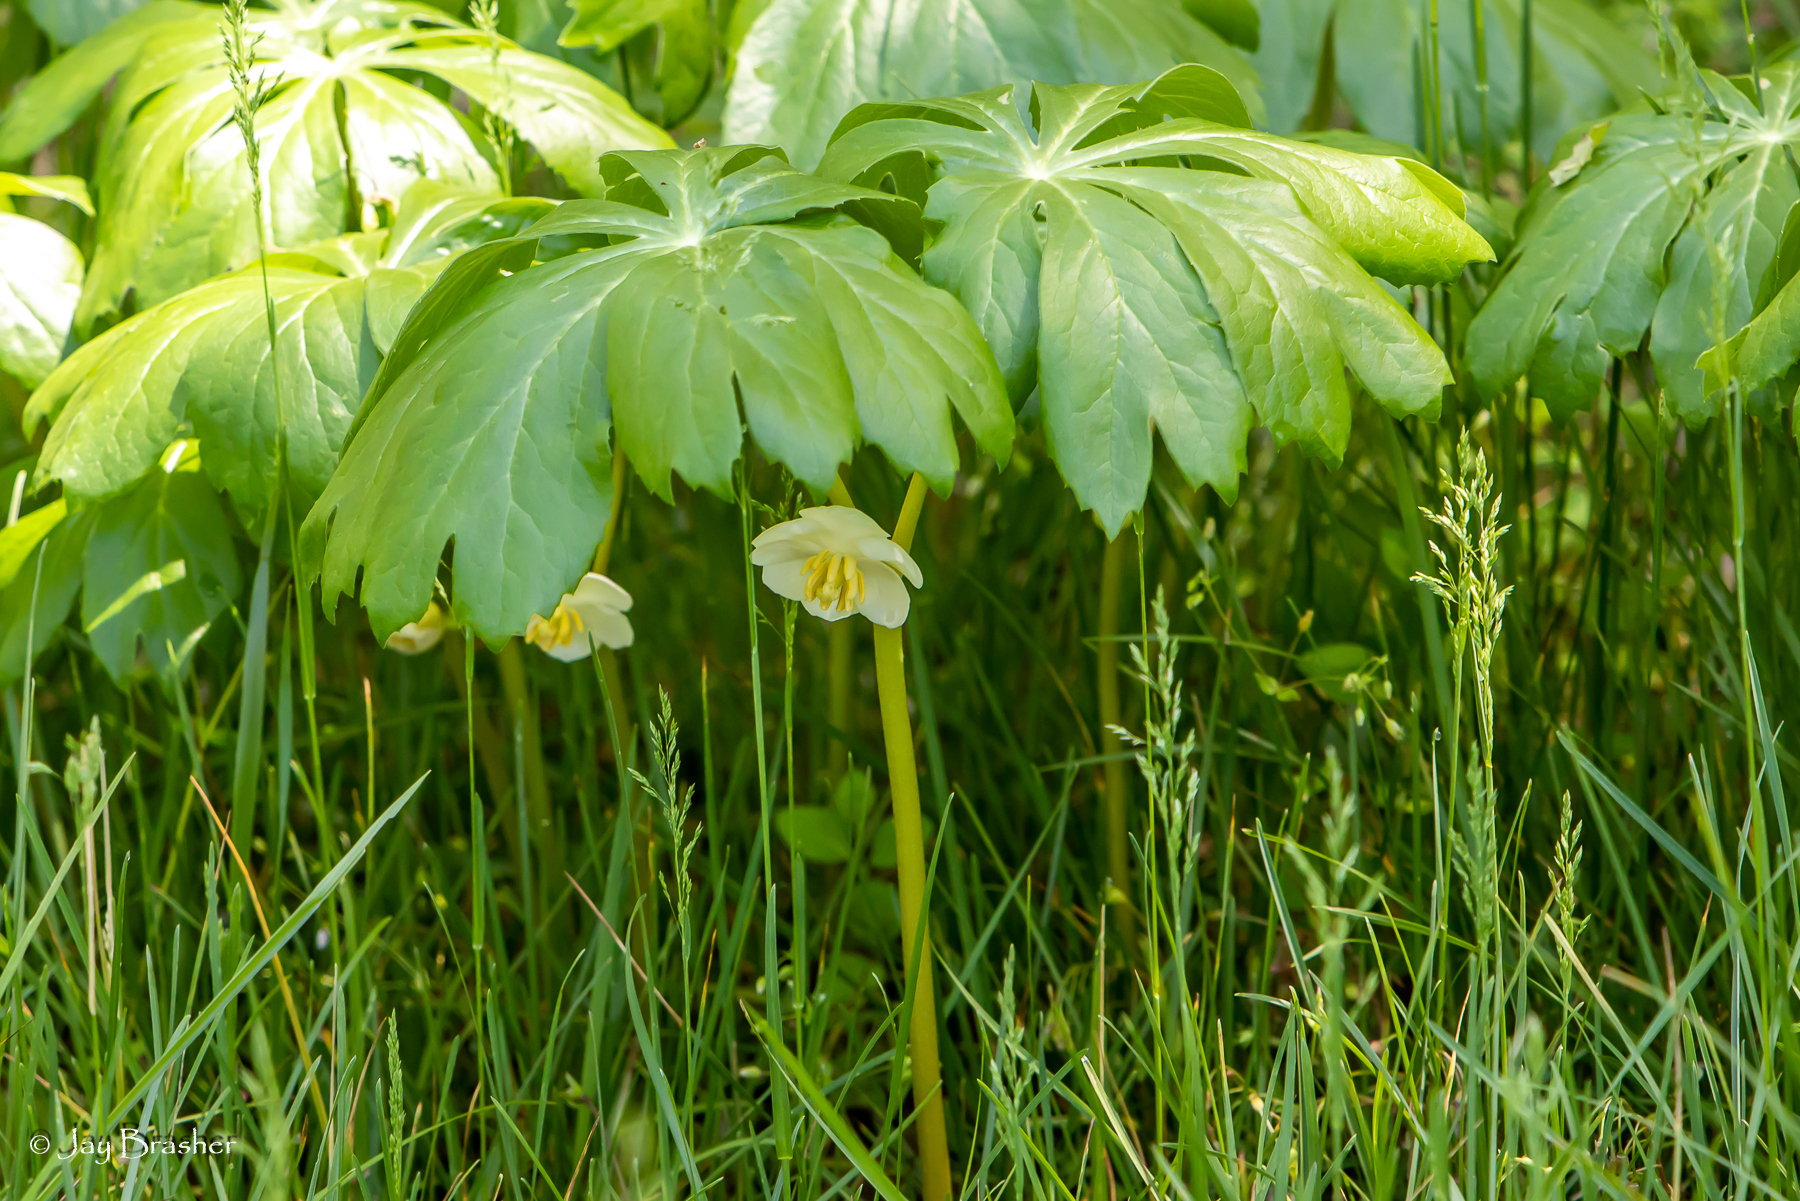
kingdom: Plantae
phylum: Tracheophyta
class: Magnoliopsida
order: Ranunculales
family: Berberidaceae
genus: Podophyllum
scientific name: Podophyllum peltatum
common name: Wild mandrake
